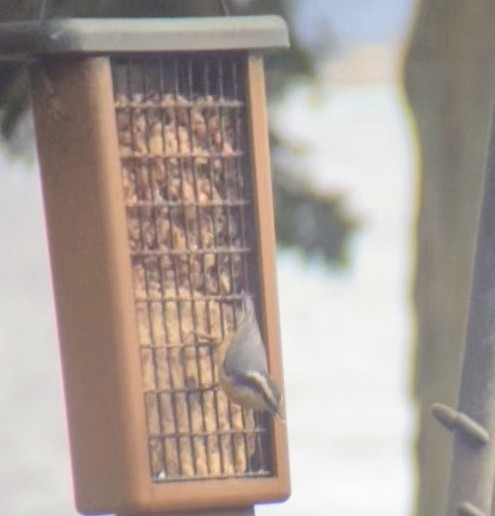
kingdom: Animalia
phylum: Chordata
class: Aves
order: Passeriformes
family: Sittidae
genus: Sitta
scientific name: Sitta canadensis
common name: Red-breasted nuthatch
